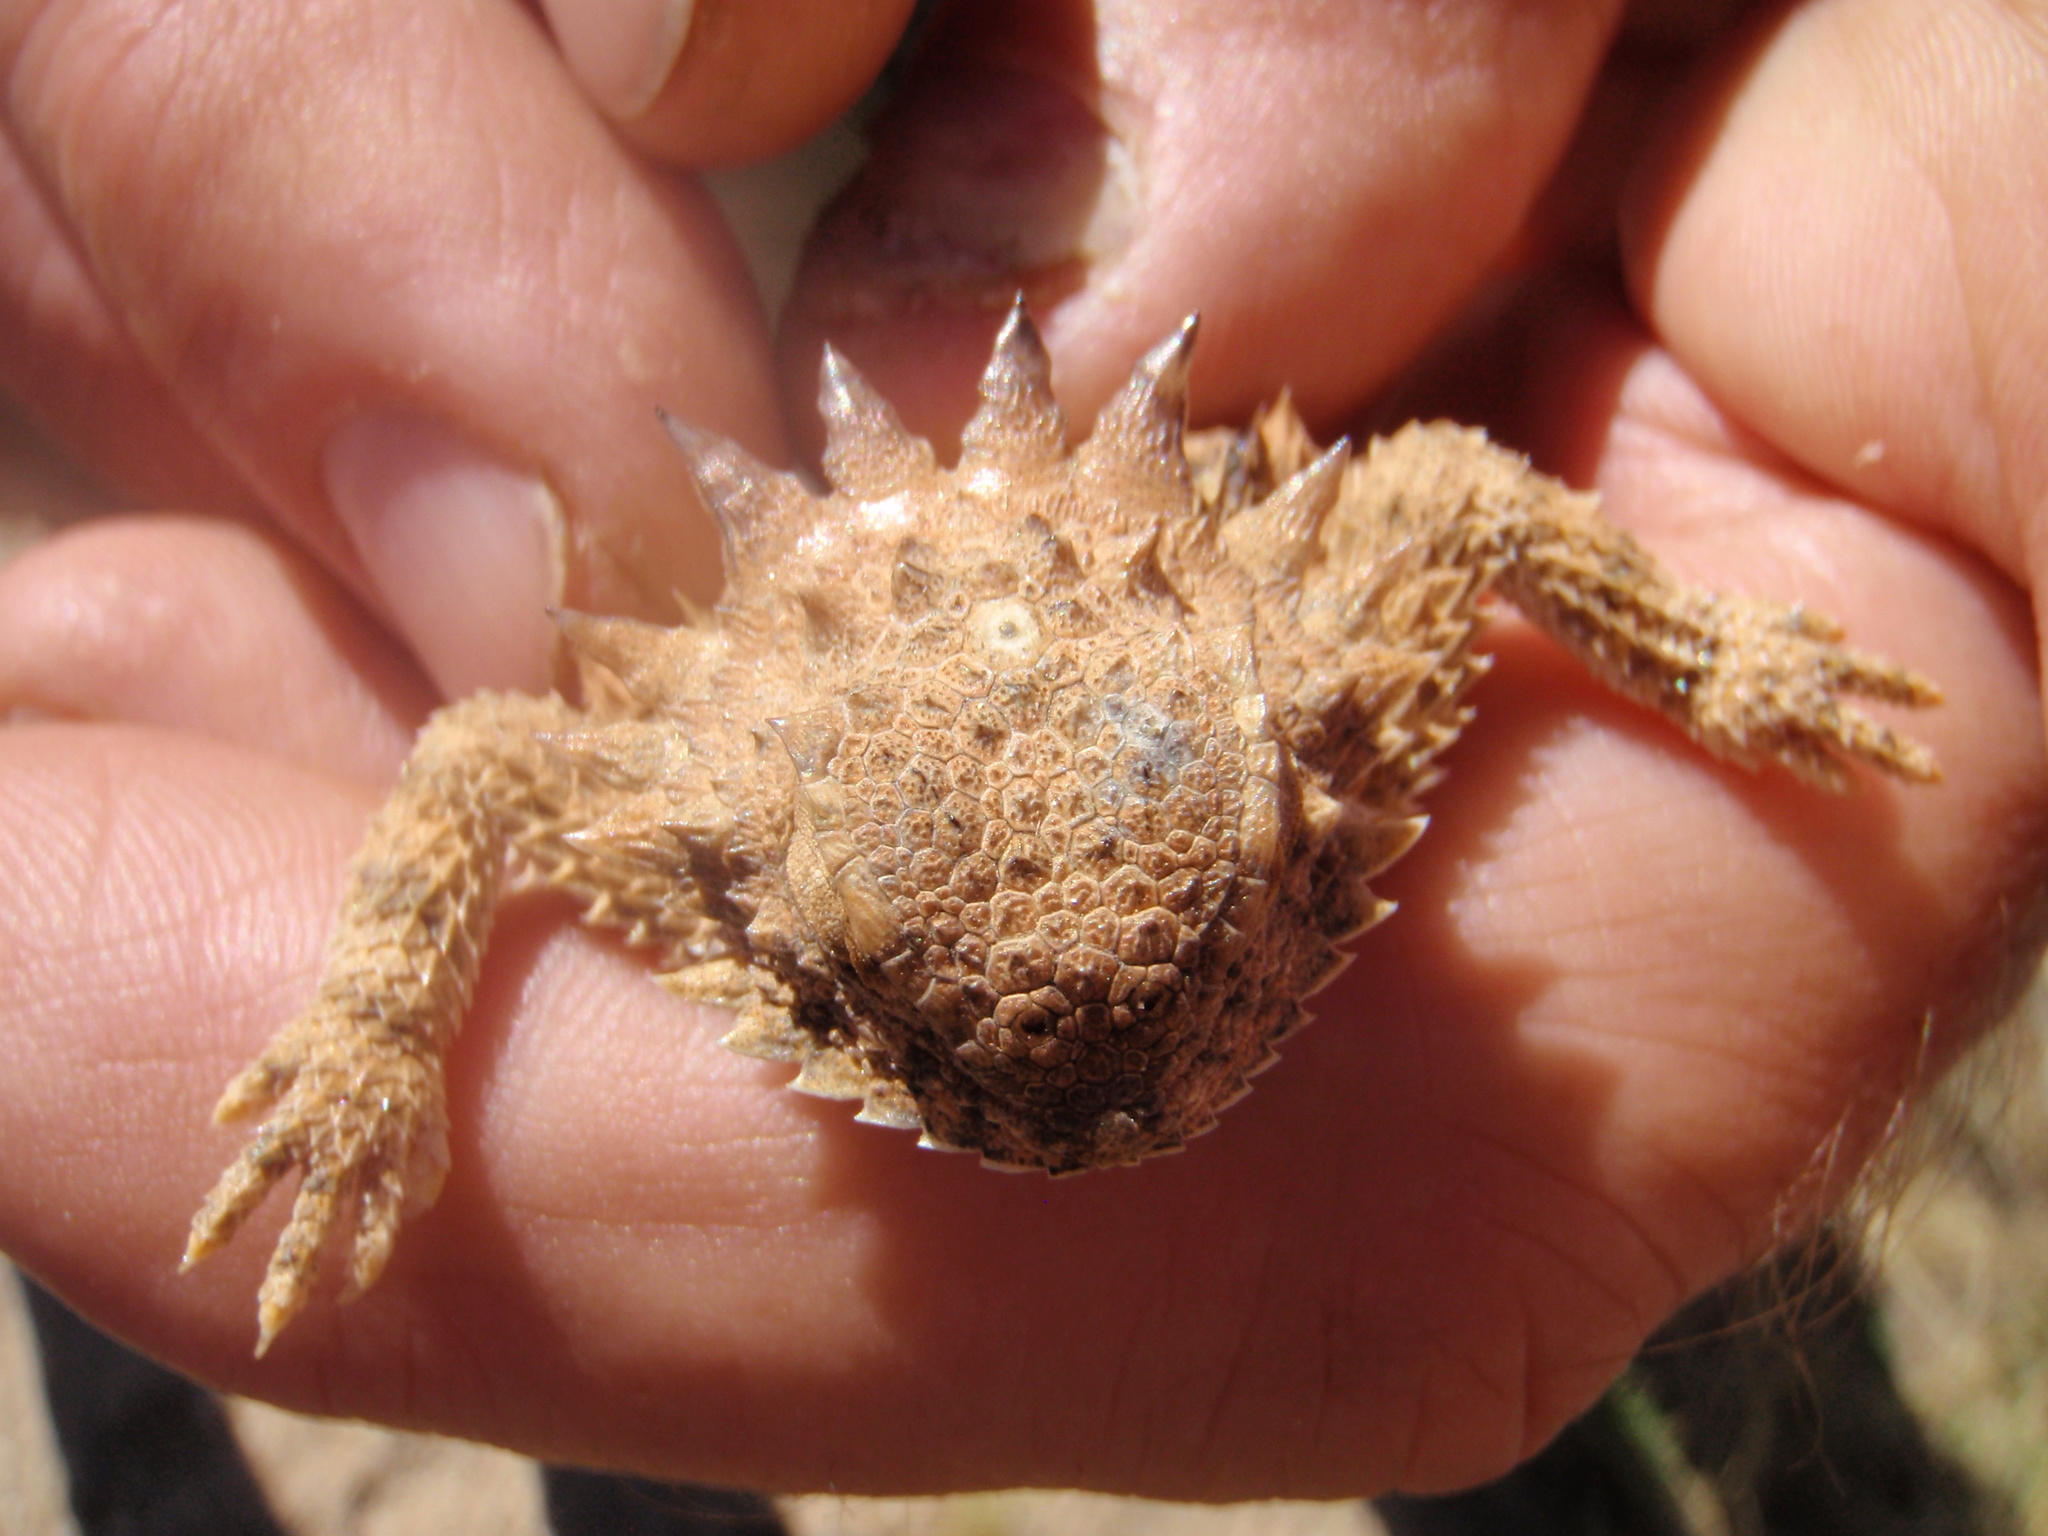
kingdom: Animalia
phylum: Chordata
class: Squamata
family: Phrynosomatidae
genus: Phrynosoma
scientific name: Phrynosoma solare
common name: Regal horned lizard
